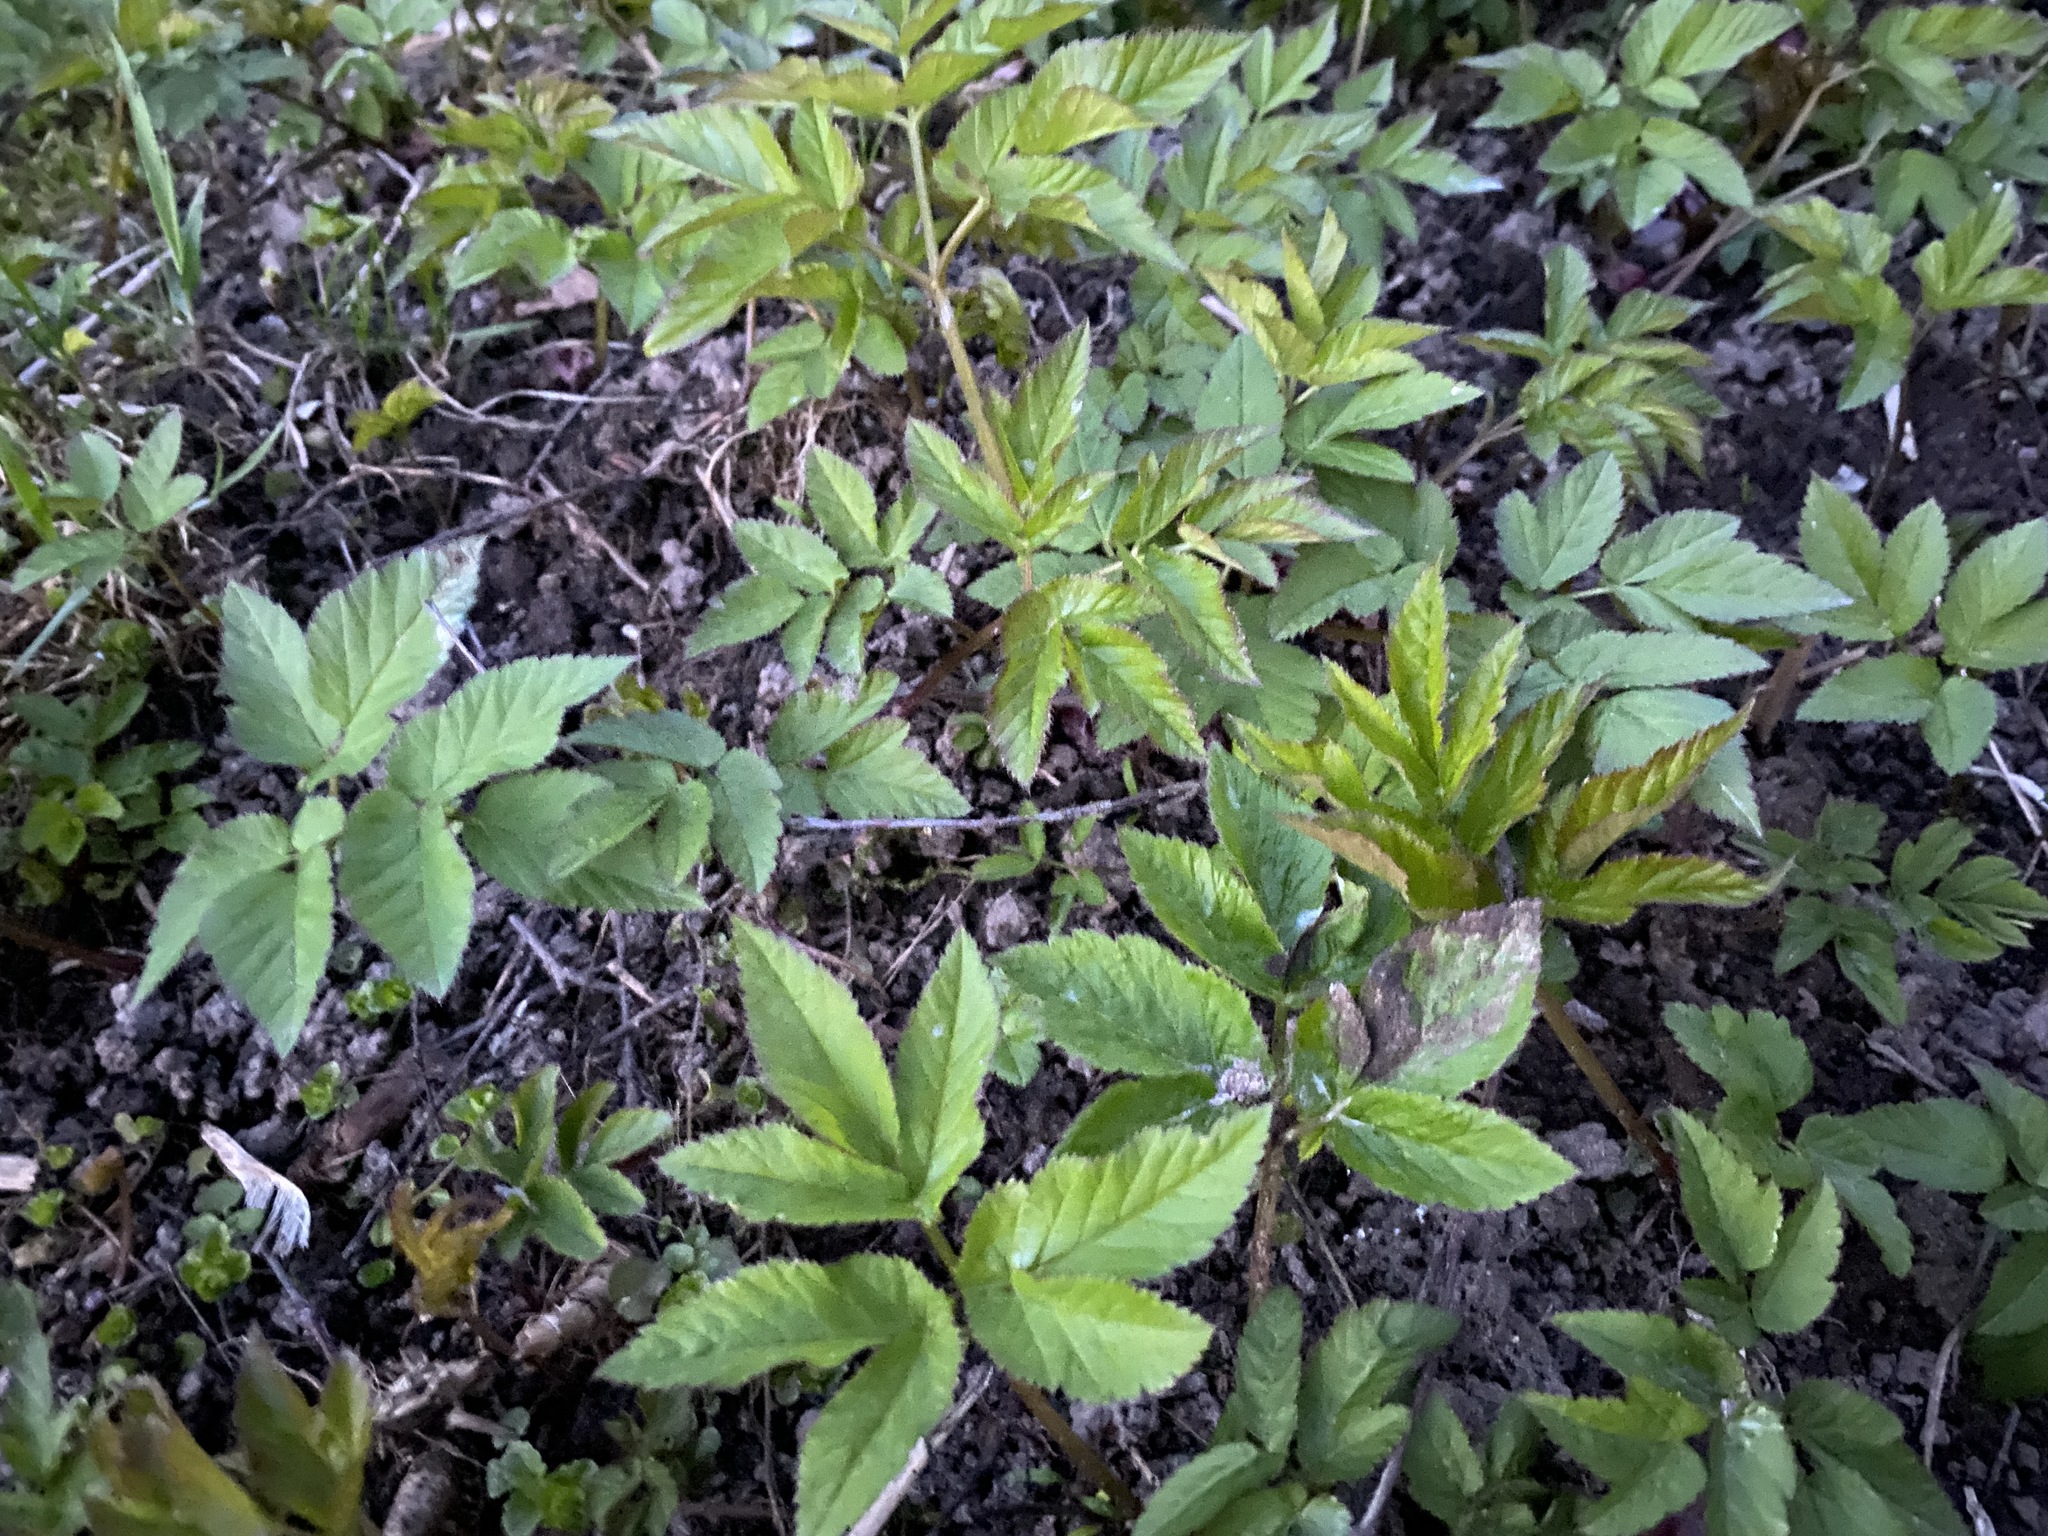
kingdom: Plantae
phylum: Tracheophyta
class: Magnoliopsida
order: Apiales
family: Apiaceae
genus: Aegopodium
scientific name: Aegopodium podagraria
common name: Ground-elder
